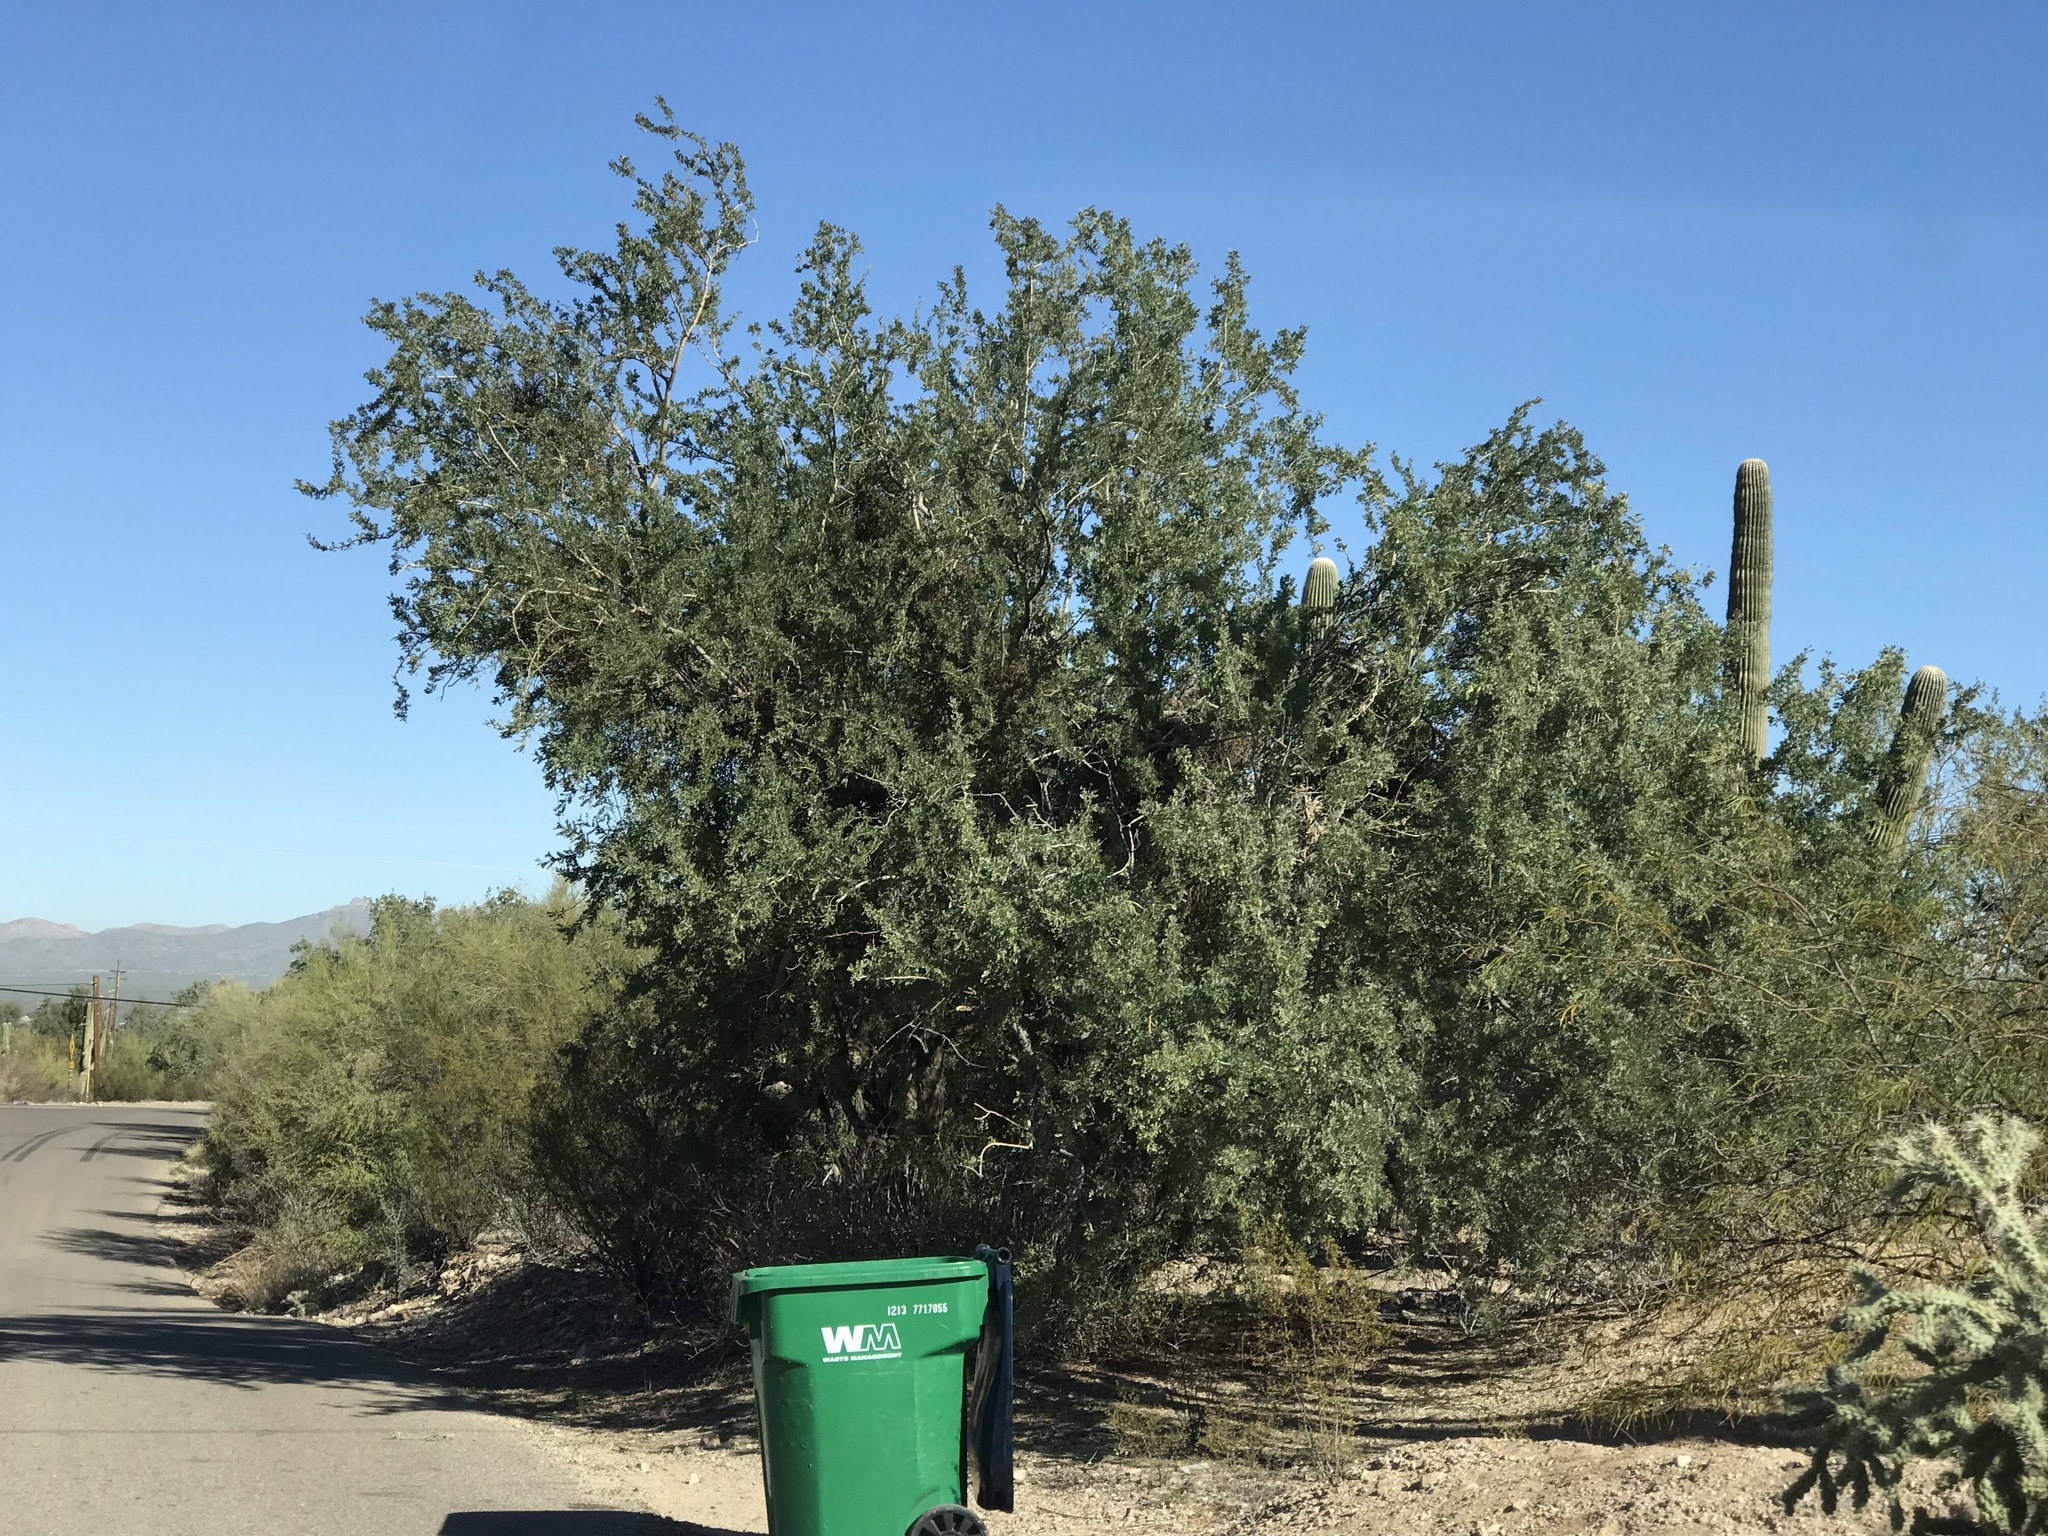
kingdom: Plantae
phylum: Tracheophyta
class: Magnoliopsida
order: Fabales
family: Fabaceae
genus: Olneya
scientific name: Olneya tesota
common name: Desert ironwood
